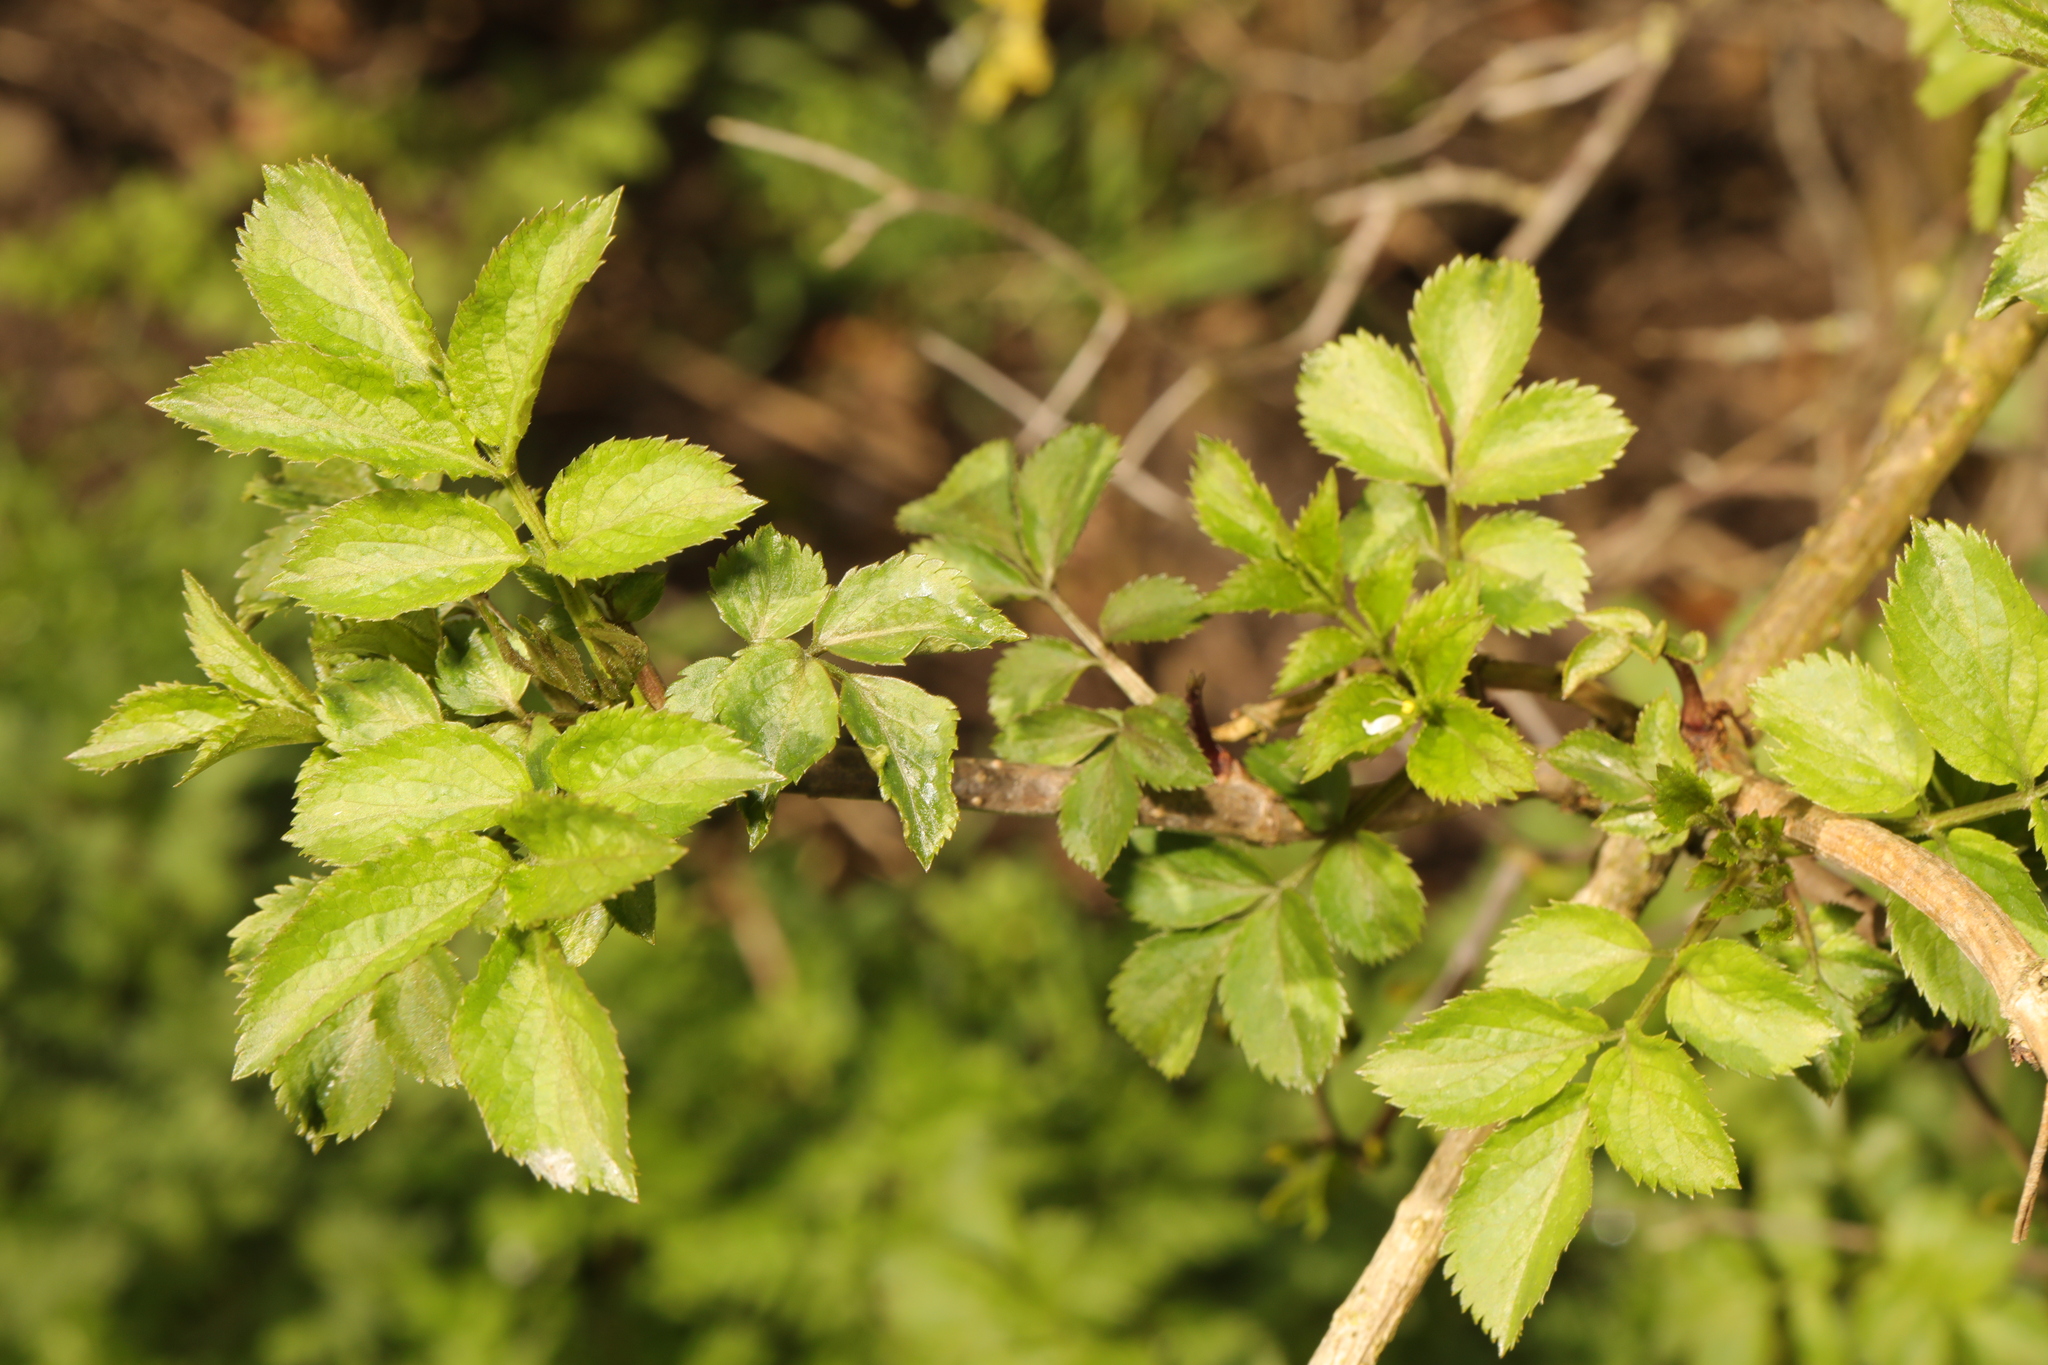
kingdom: Plantae
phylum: Tracheophyta
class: Magnoliopsida
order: Dipsacales
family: Viburnaceae
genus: Sambucus
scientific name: Sambucus nigra
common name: Elder
